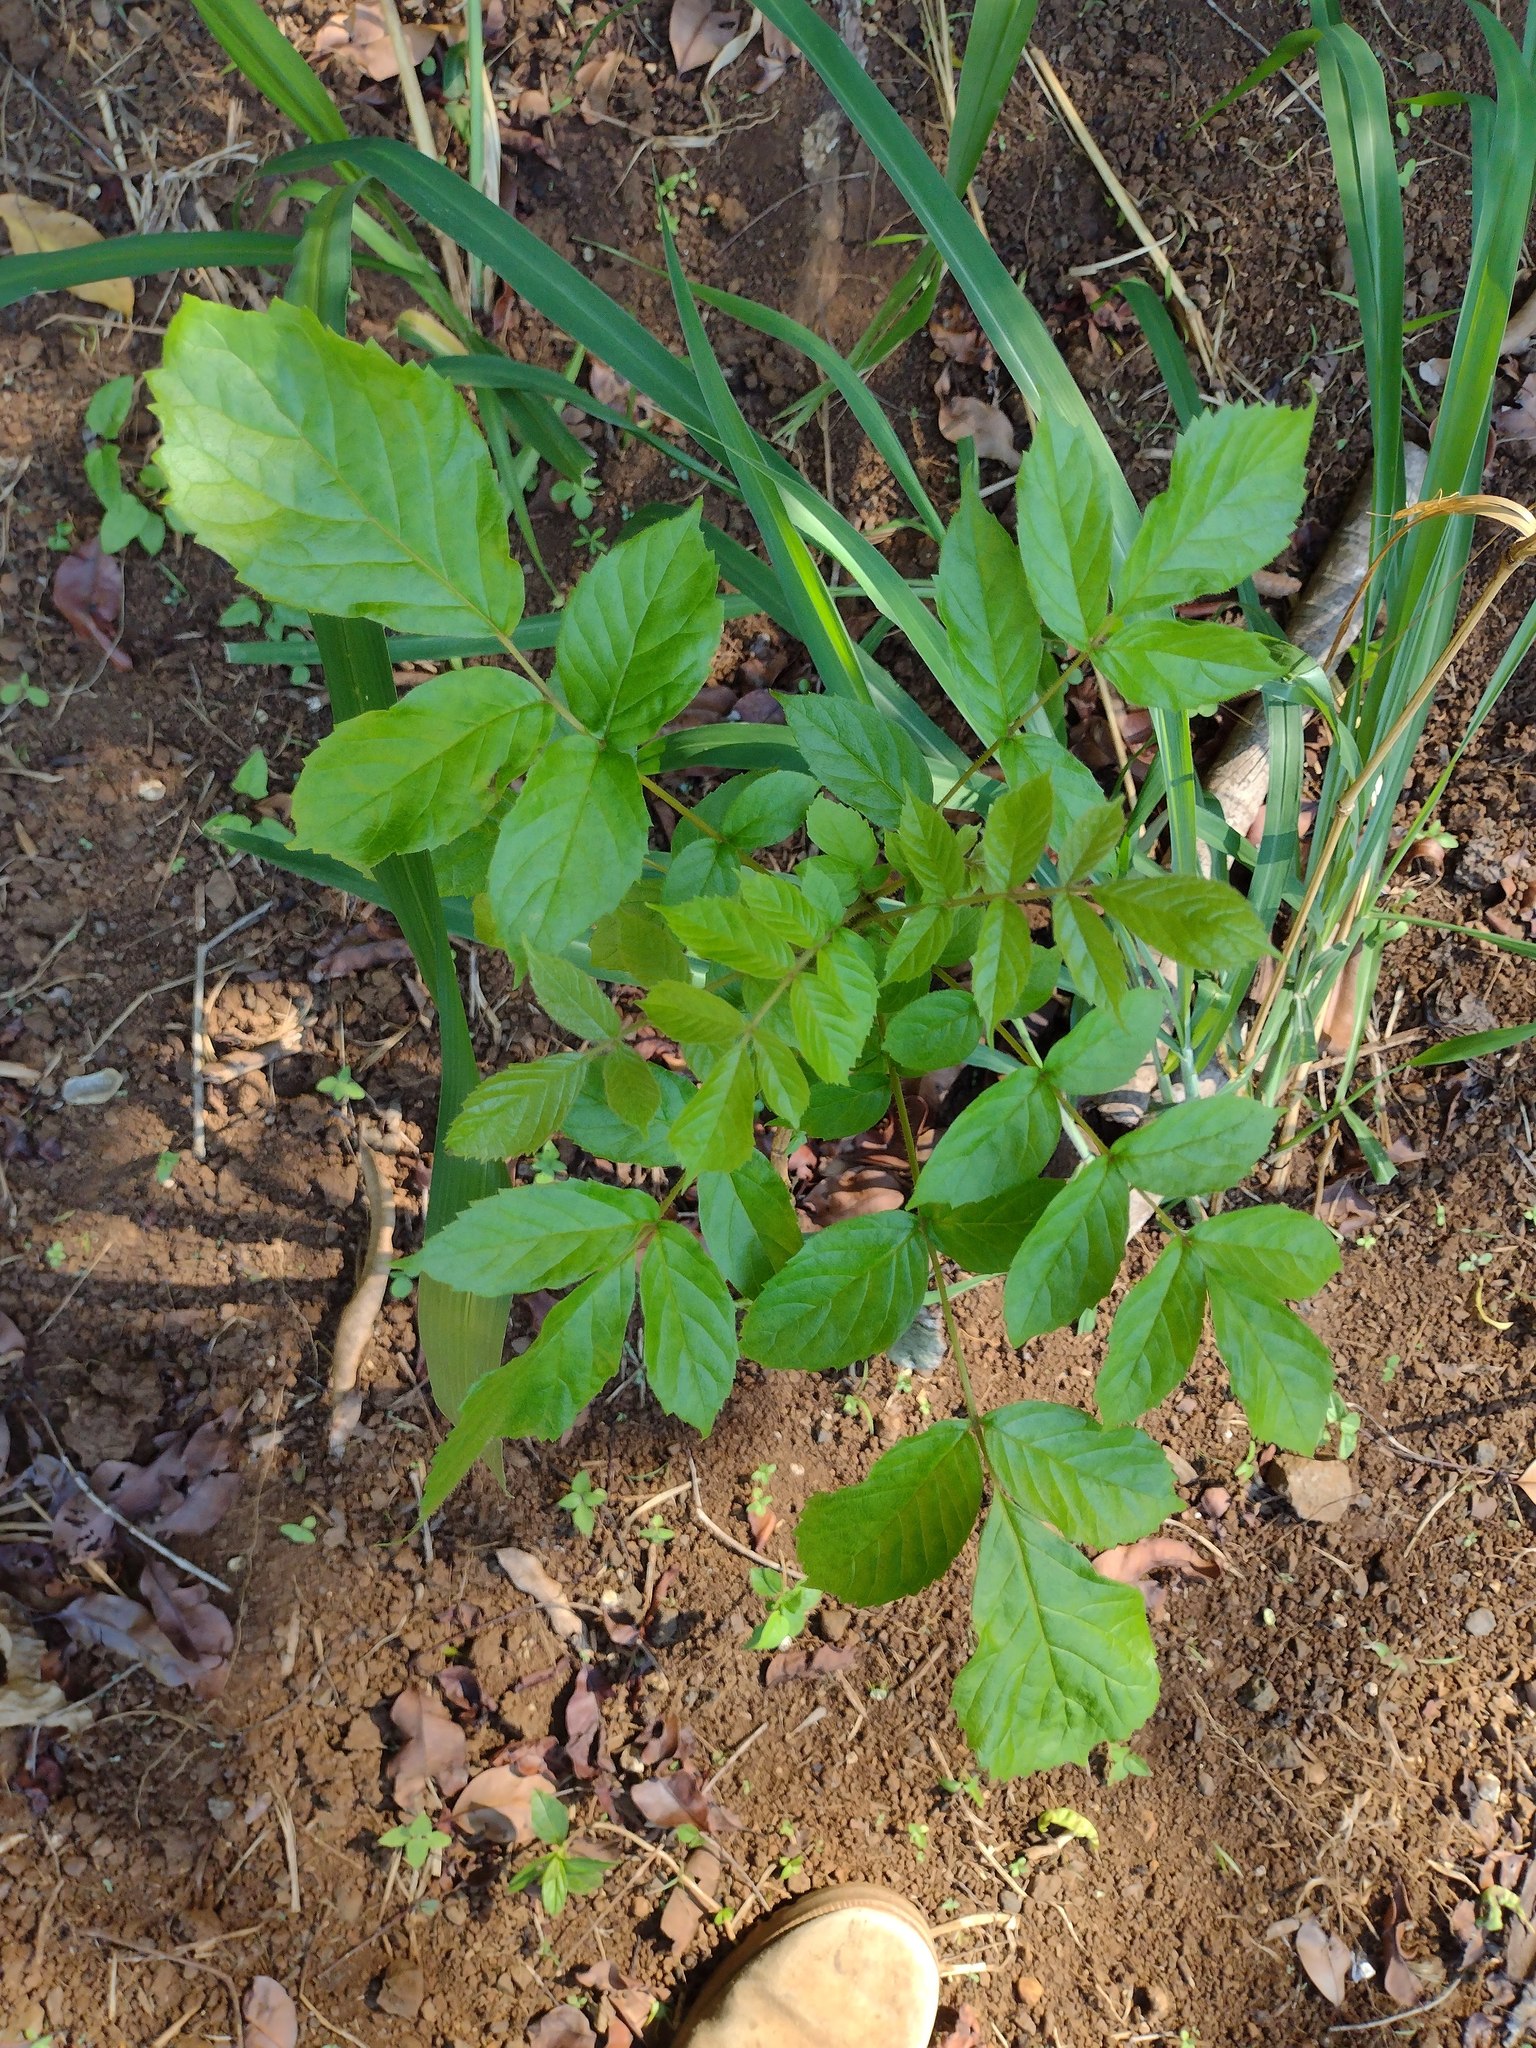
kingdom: Plantae
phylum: Tracheophyta
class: Magnoliopsida
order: Lamiales
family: Bignoniaceae
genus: Spathodea
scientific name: Spathodea campanulata
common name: African tuliptree
